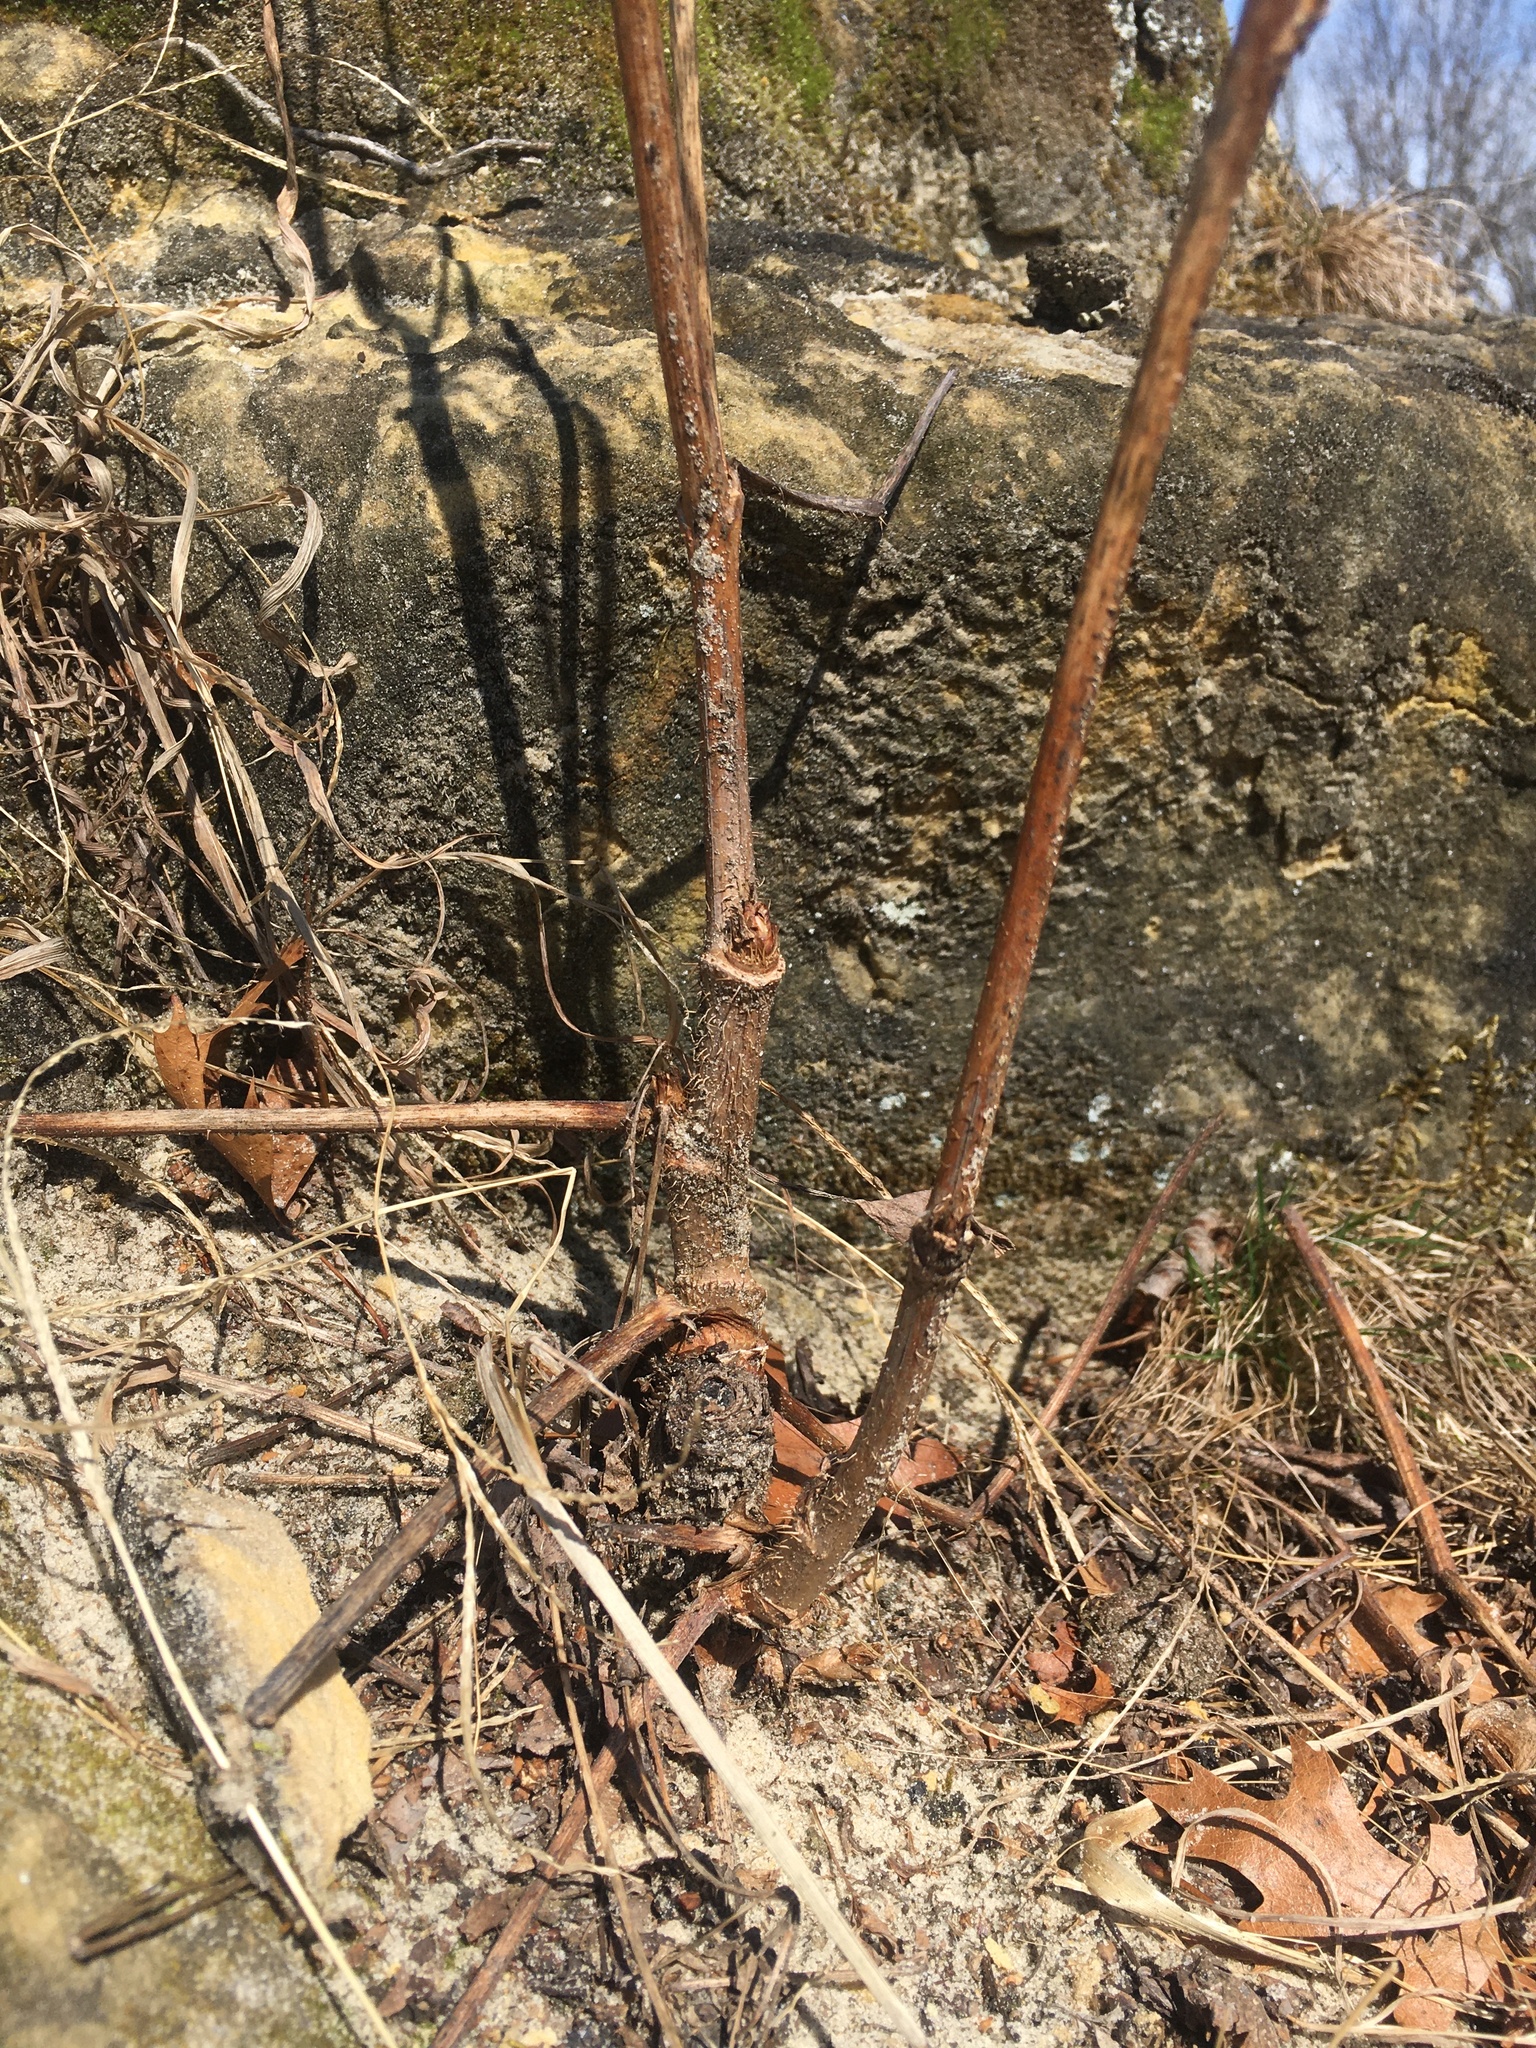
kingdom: Plantae
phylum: Tracheophyta
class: Magnoliopsida
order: Apiales
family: Araliaceae
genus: Aralia
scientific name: Aralia hispida
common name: Bristly sarsaparilla
